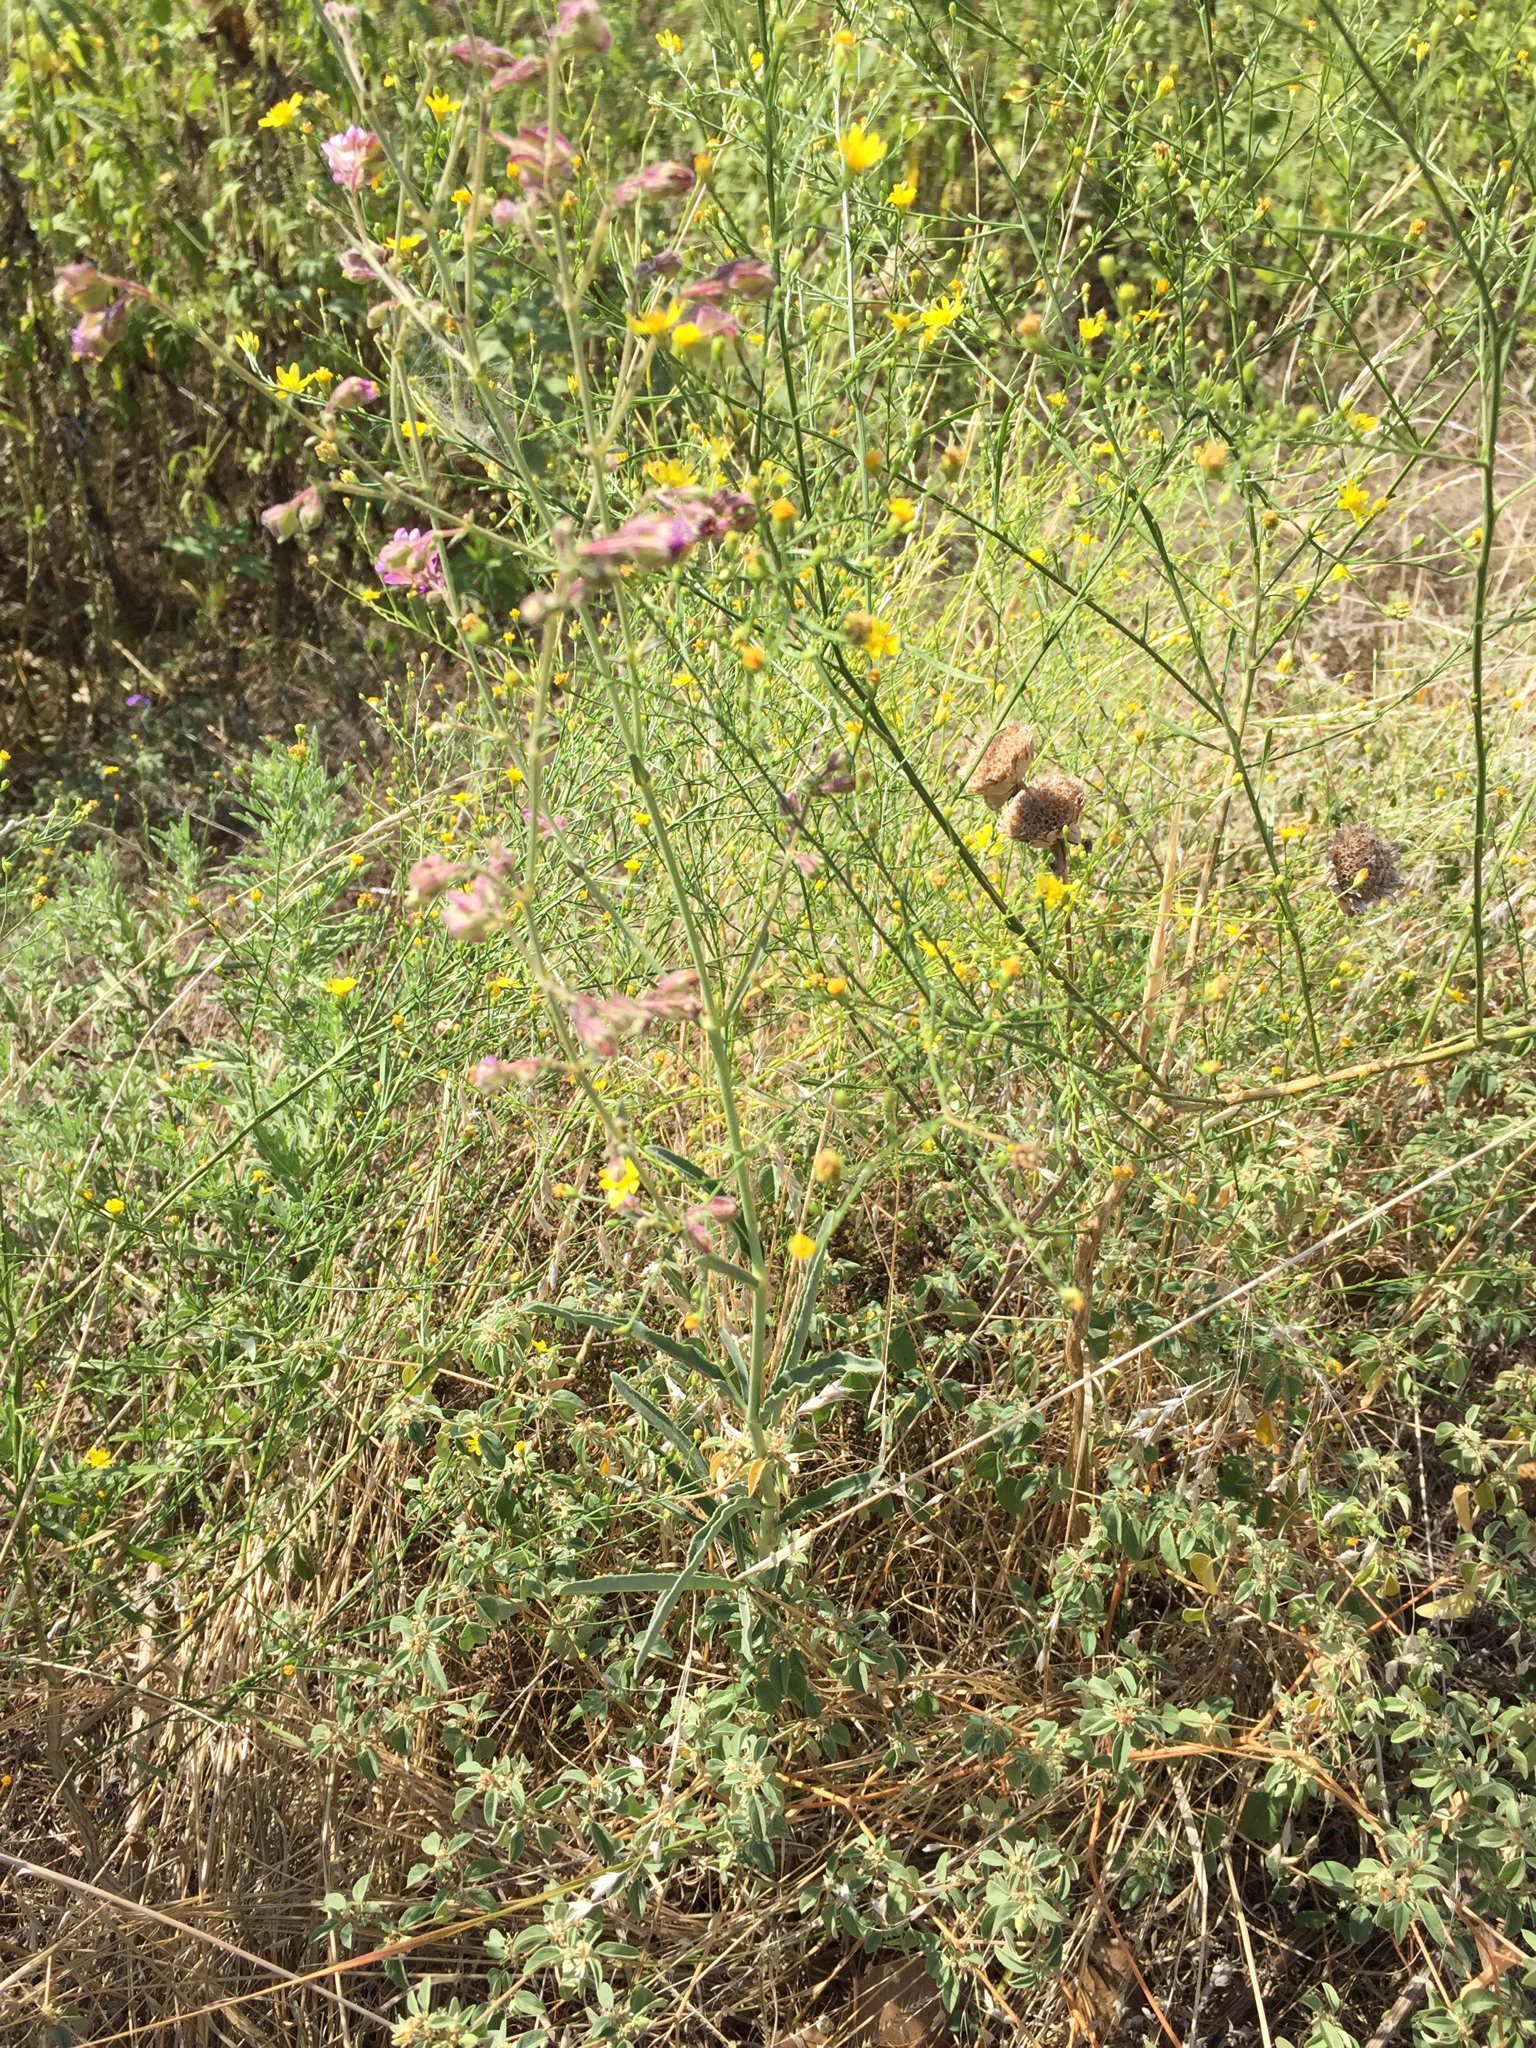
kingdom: Plantae
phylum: Tracheophyta
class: Magnoliopsida
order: Caryophyllales
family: Nyctaginaceae
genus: Mirabilis
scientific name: Mirabilis albida
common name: Hairy four-o'clock
